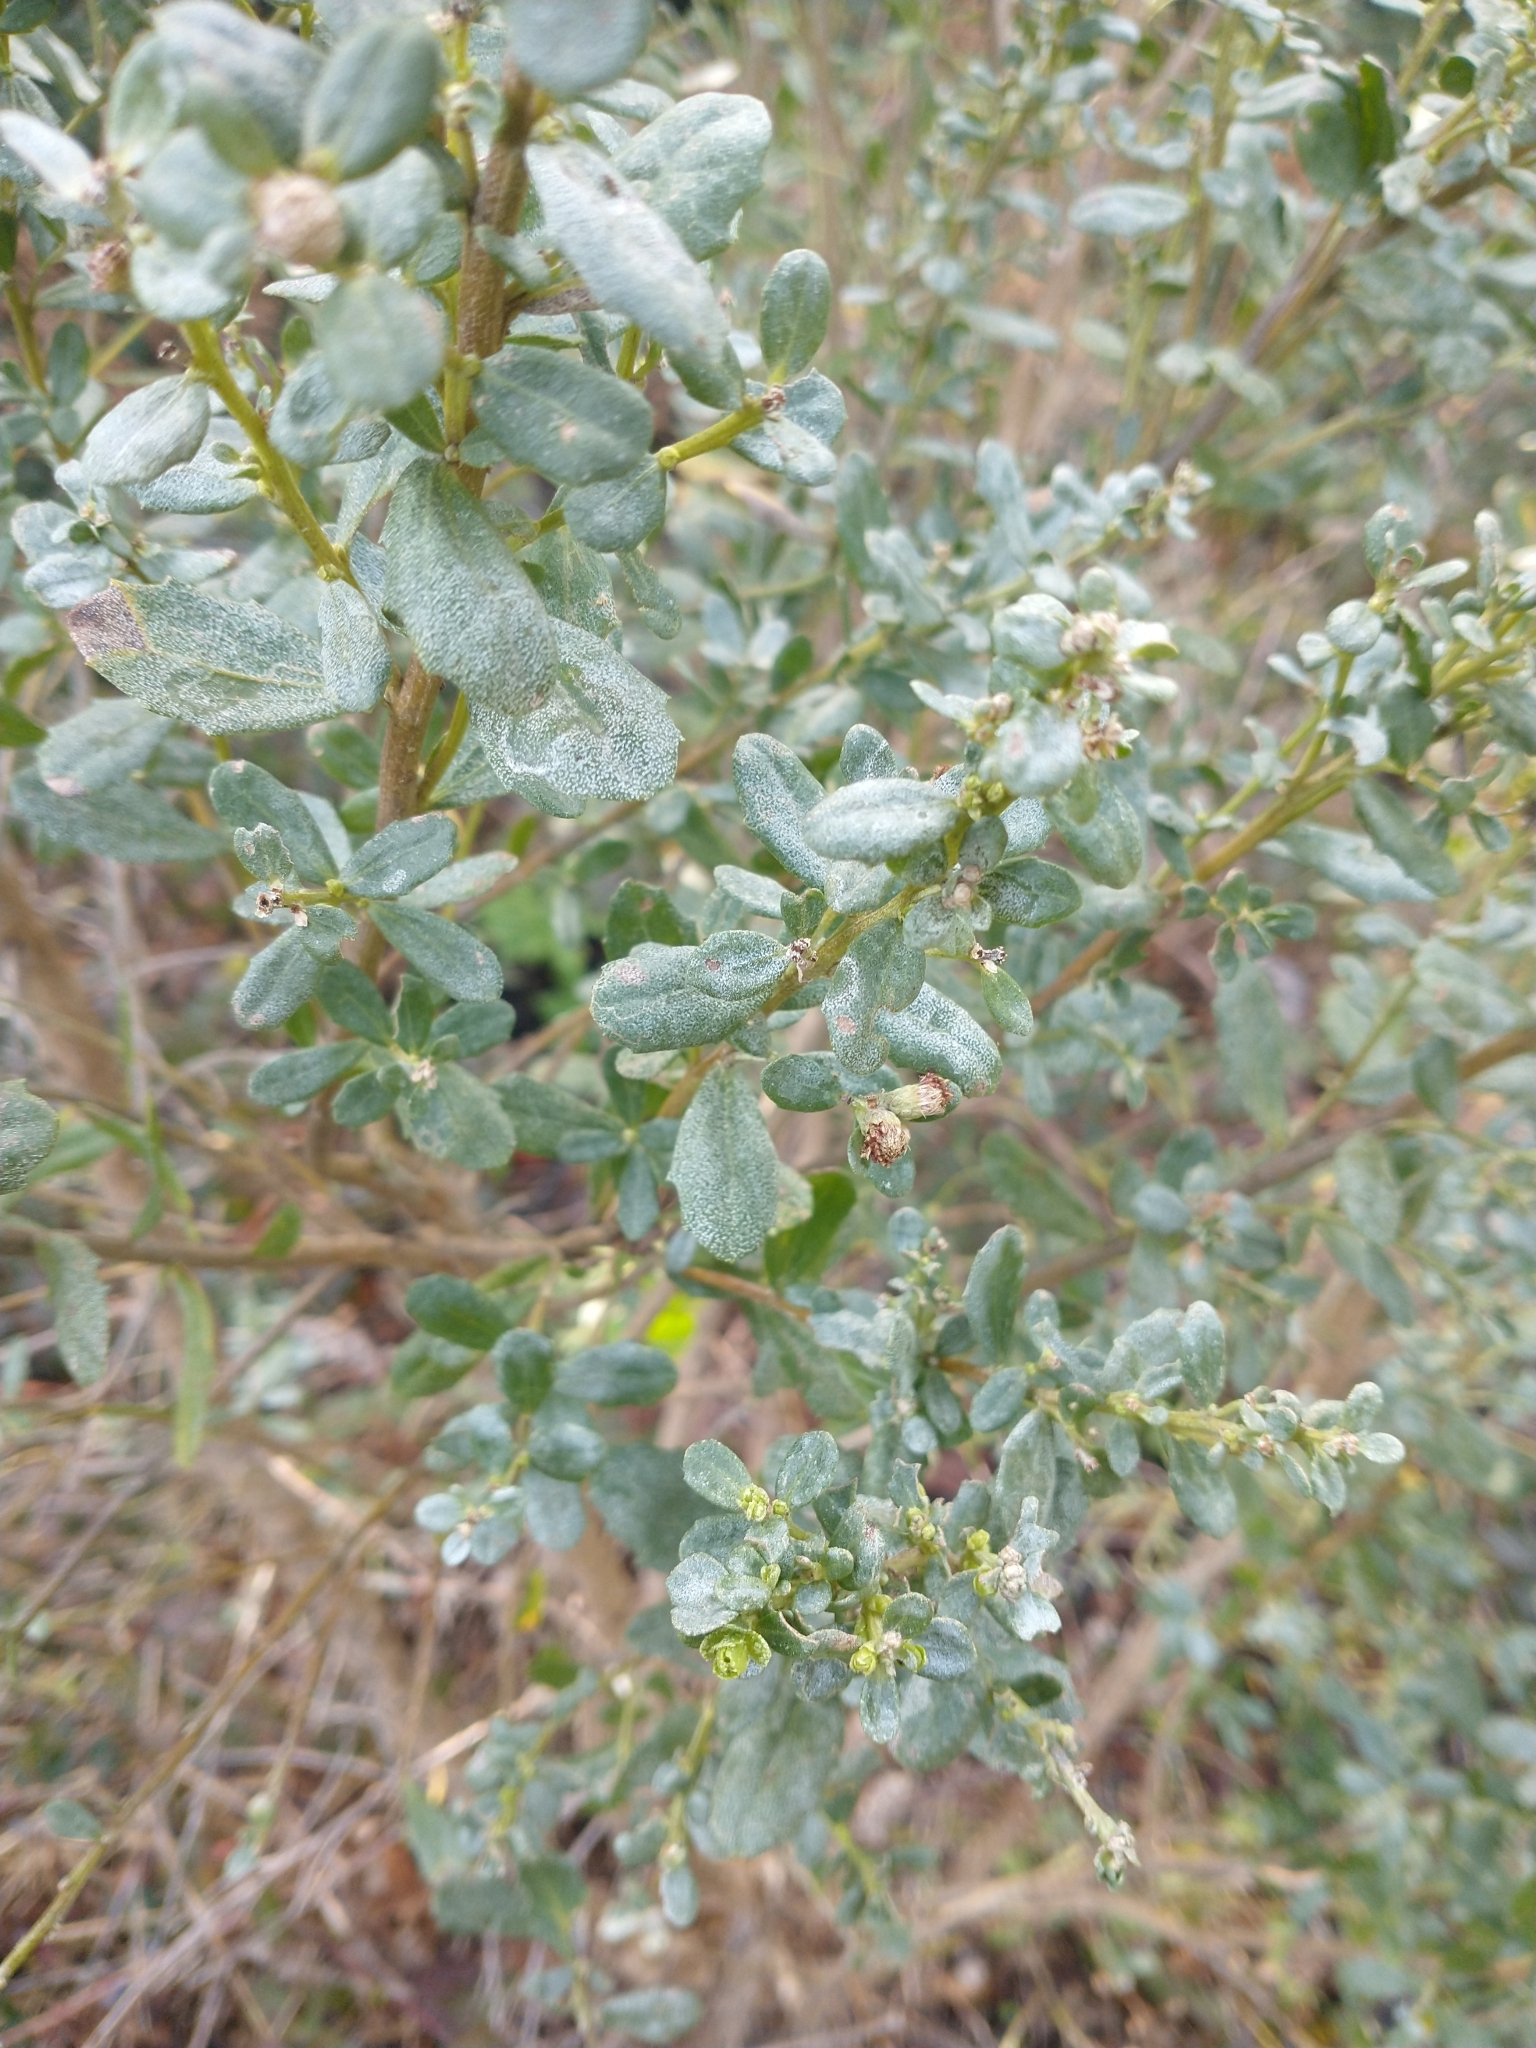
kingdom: Plantae
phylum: Tracheophyta
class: Magnoliopsida
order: Asterales
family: Asteraceae
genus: Baccharis
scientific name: Baccharis pilularis
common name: Coyotebrush
